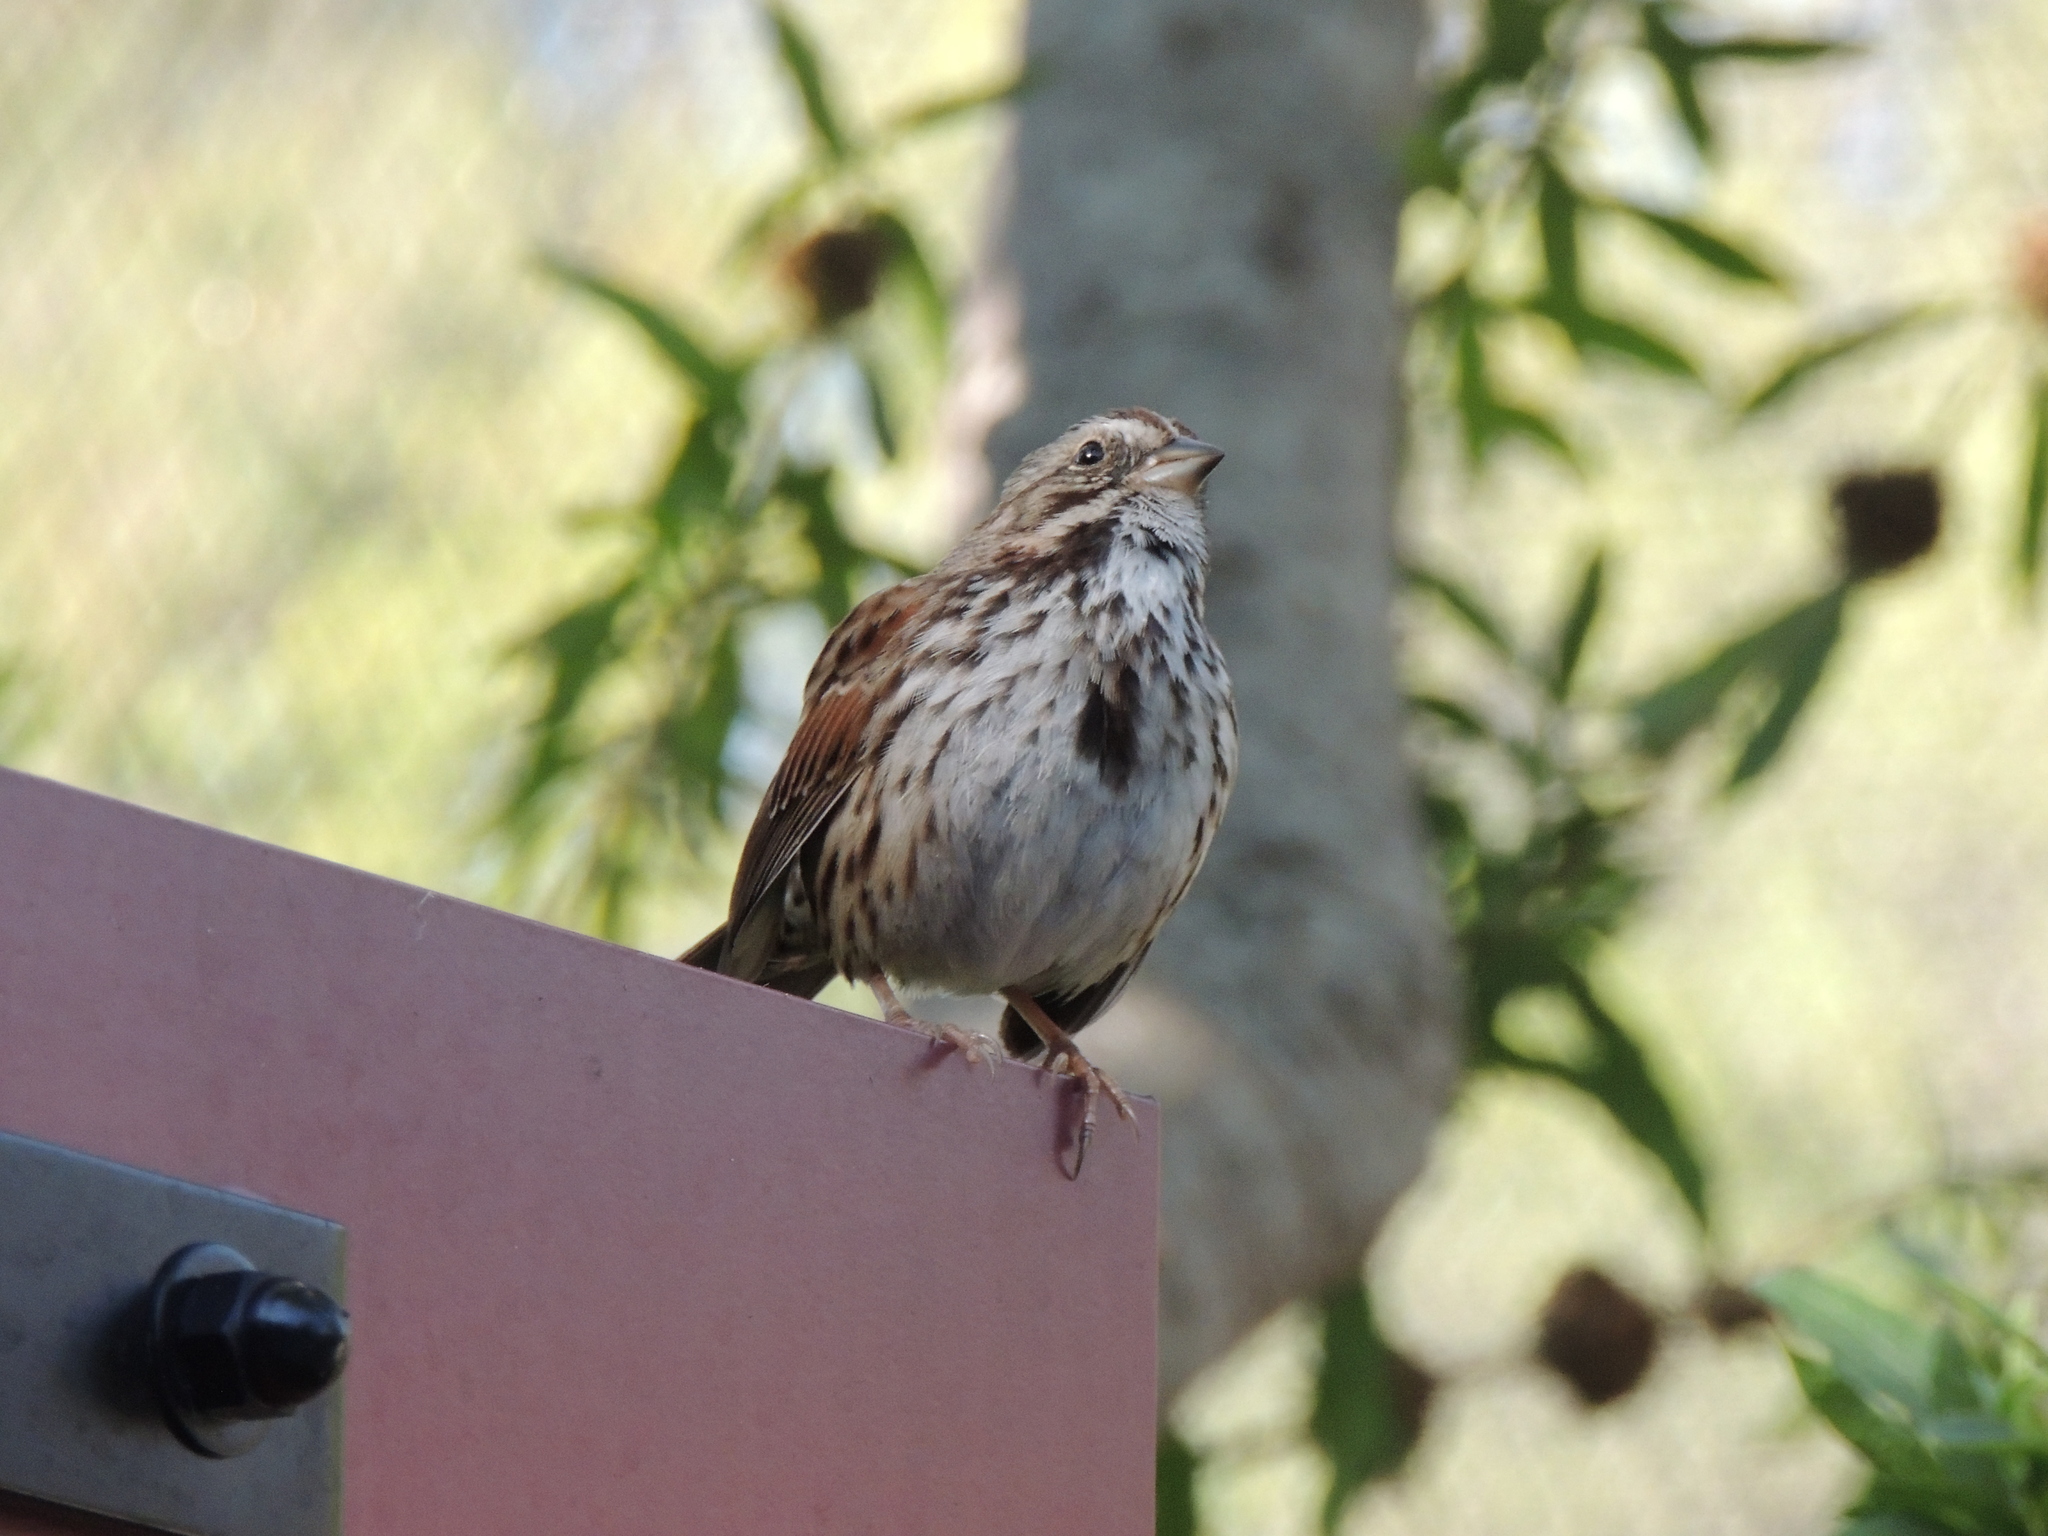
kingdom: Animalia
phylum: Chordata
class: Aves
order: Passeriformes
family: Passerellidae
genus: Melospiza
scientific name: Melospiza melodia
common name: Song sparrow
